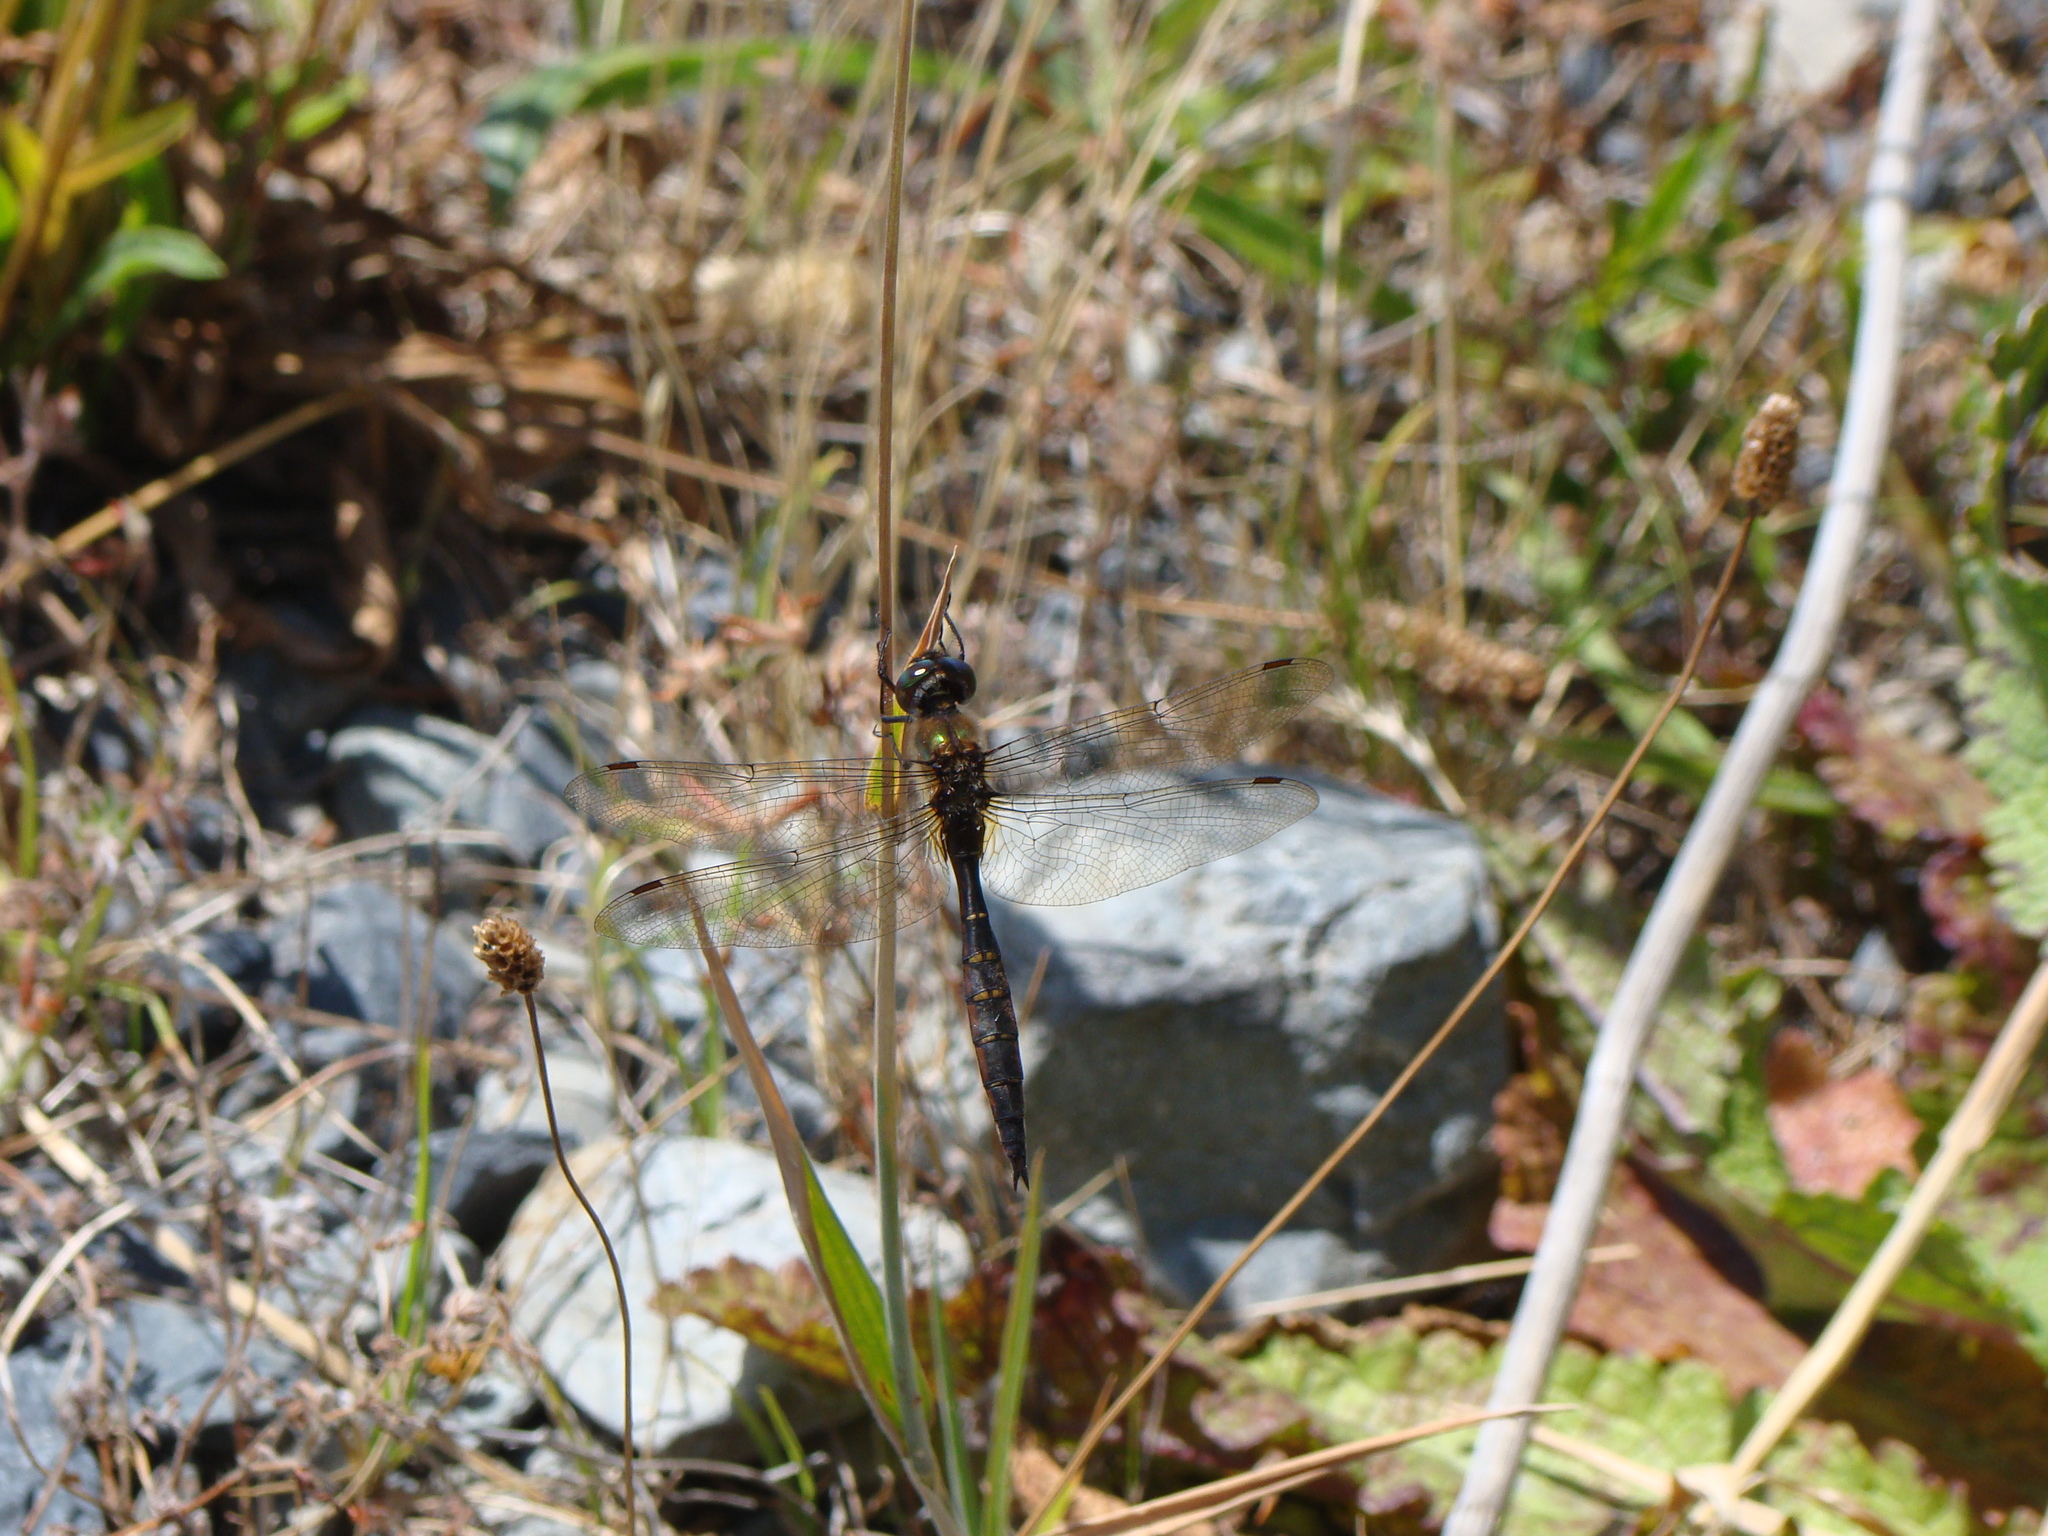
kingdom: Animalia
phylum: Arthropoda
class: Insecta
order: Odonata
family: Corduliidae
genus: Procordulia
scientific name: Procordulia smithii
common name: Ranger dragonfly
